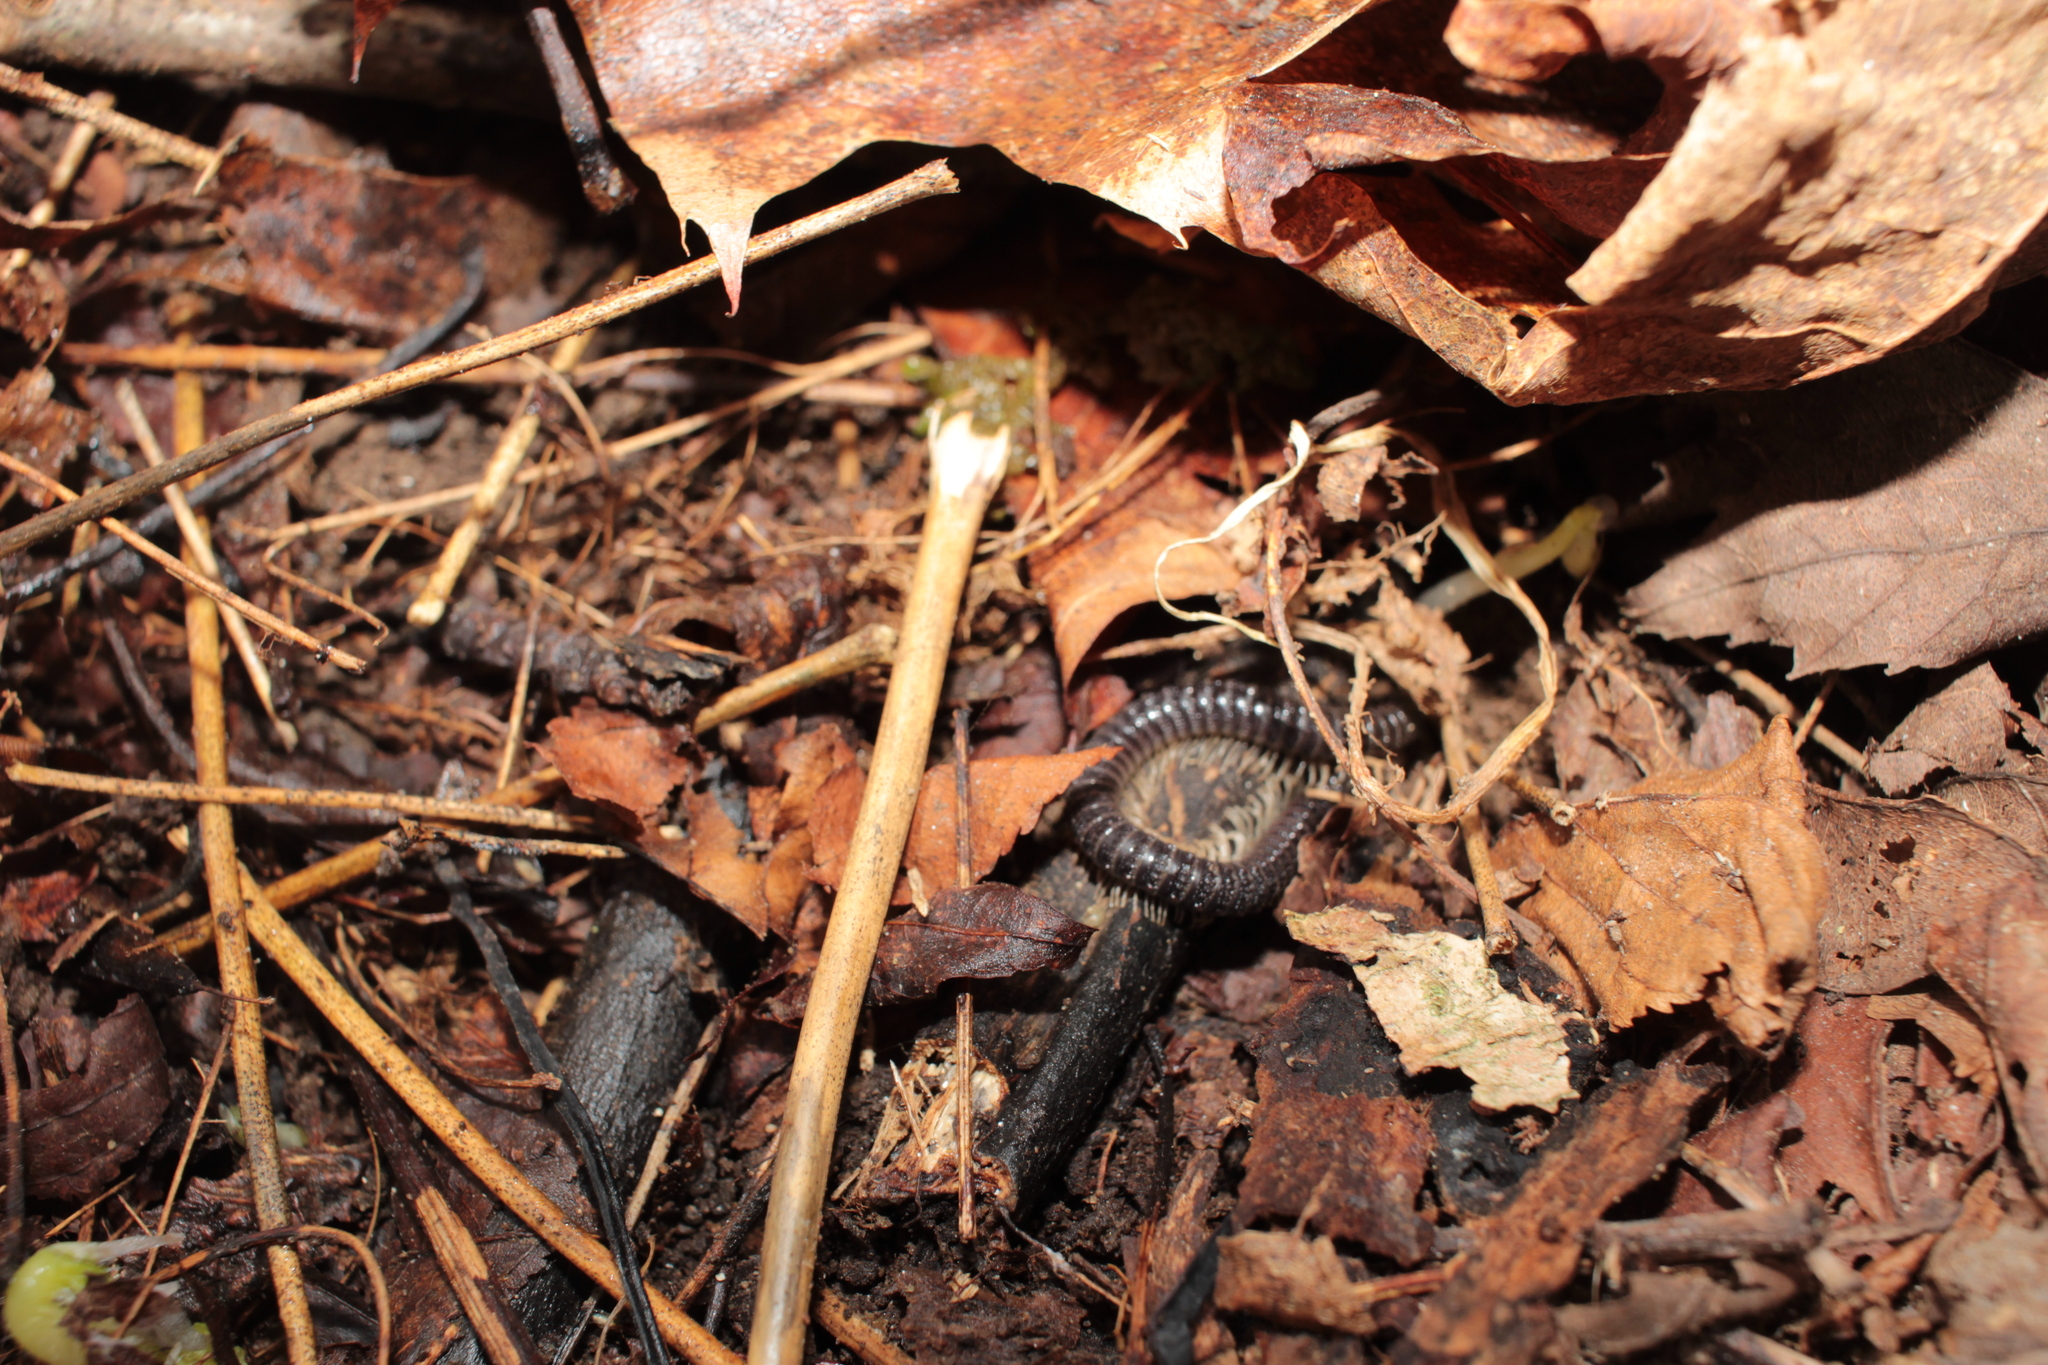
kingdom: Animalia
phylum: Arthropoda
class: Diplopoda
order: Spirostreptida
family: Cambalidae
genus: Cambala
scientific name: Cambala
